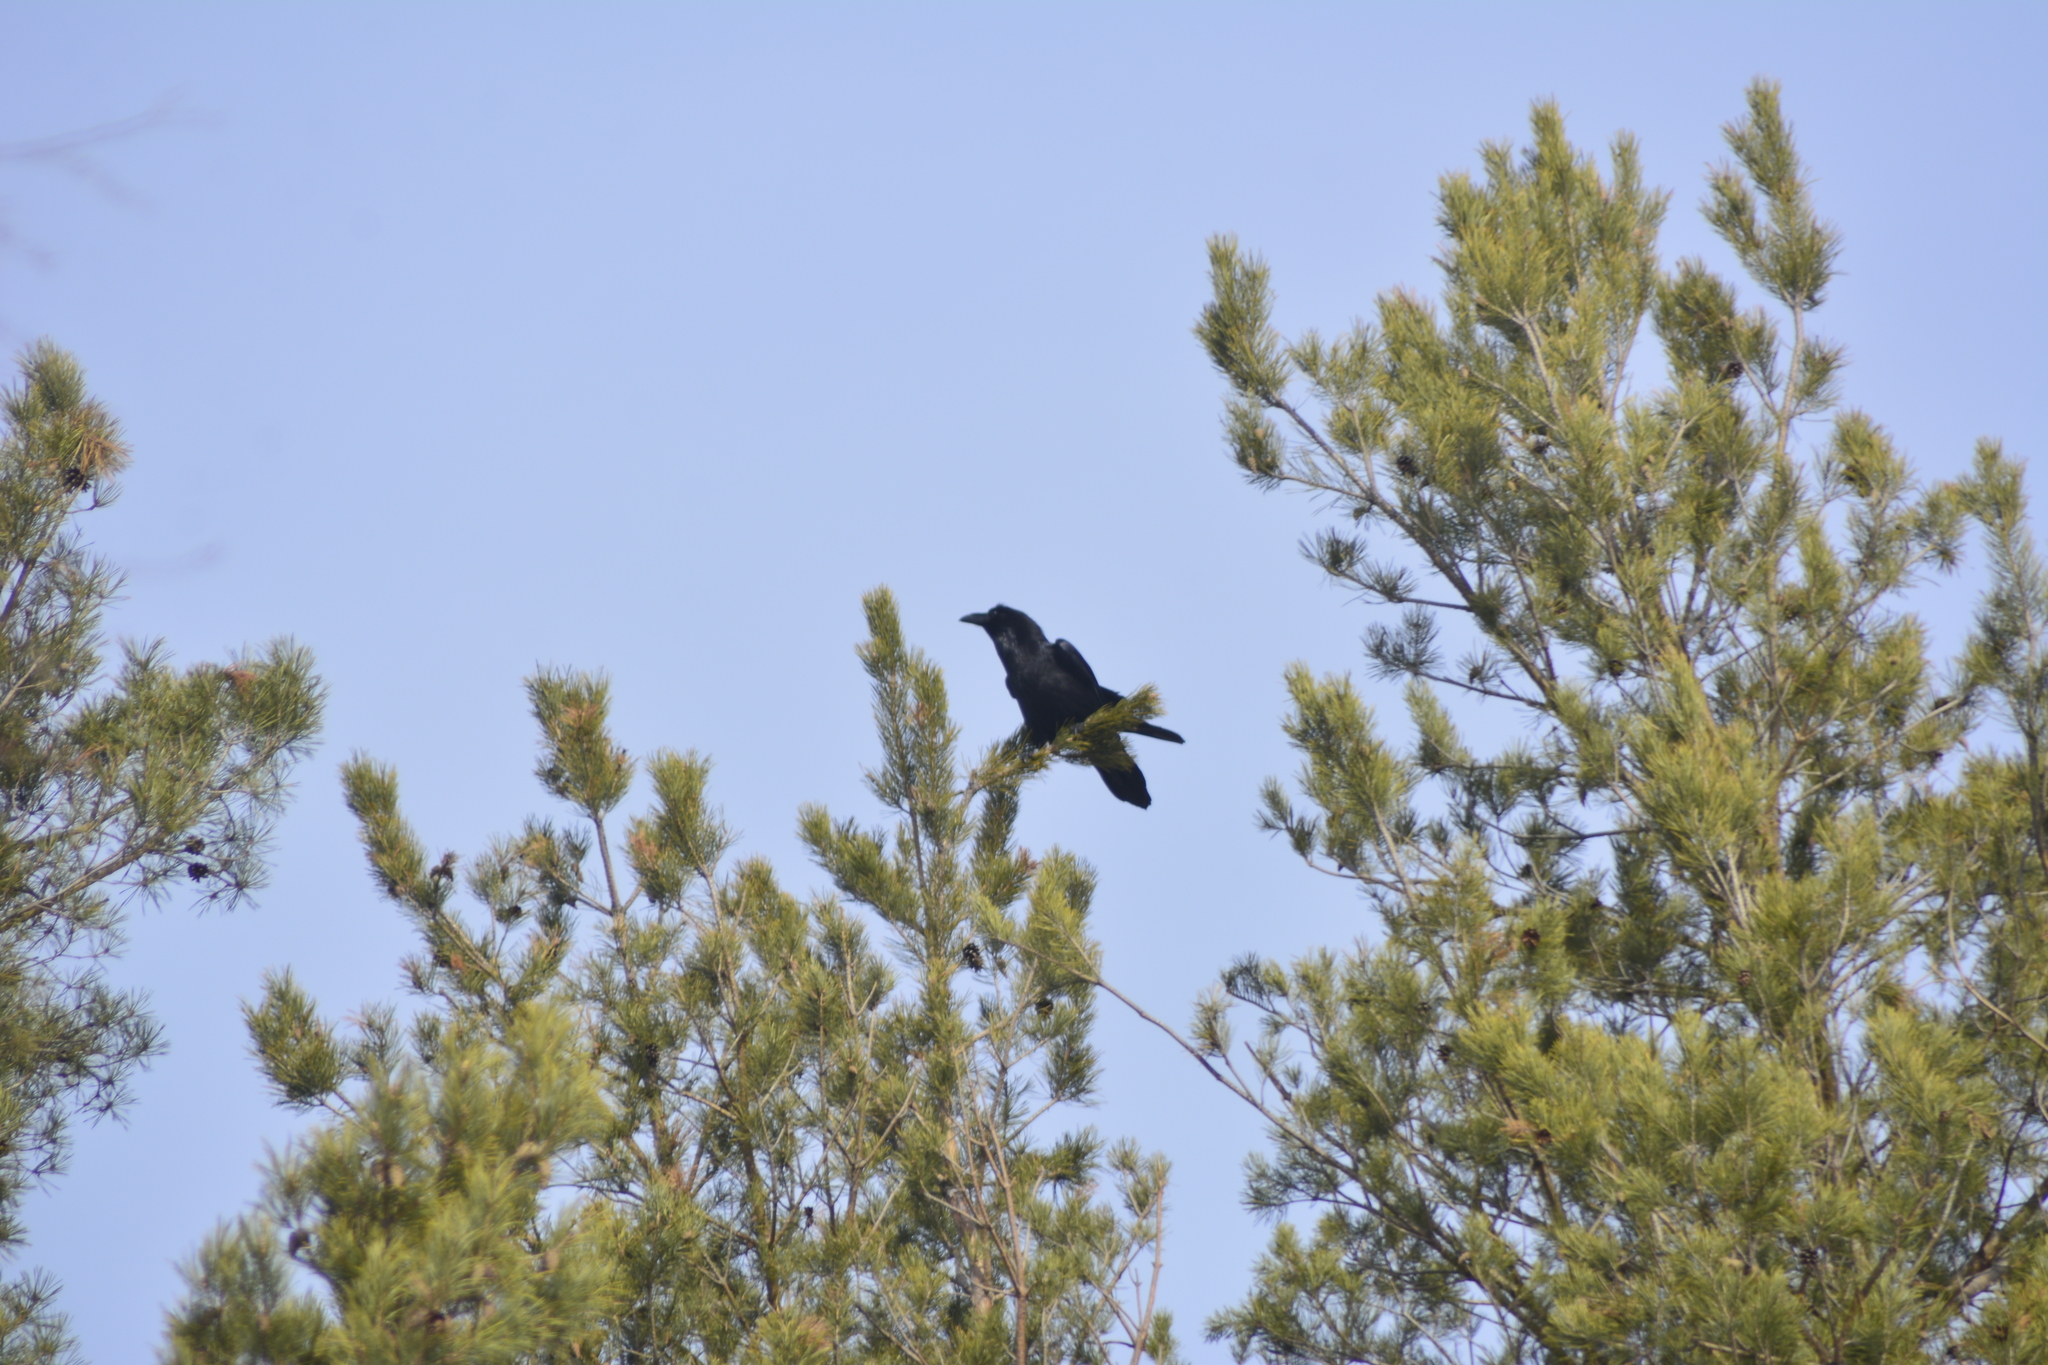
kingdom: Animalia
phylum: Chordata
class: Aves
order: Passeriformes
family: Corvidae
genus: Corvus
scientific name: Corvus corax
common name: Common raven
